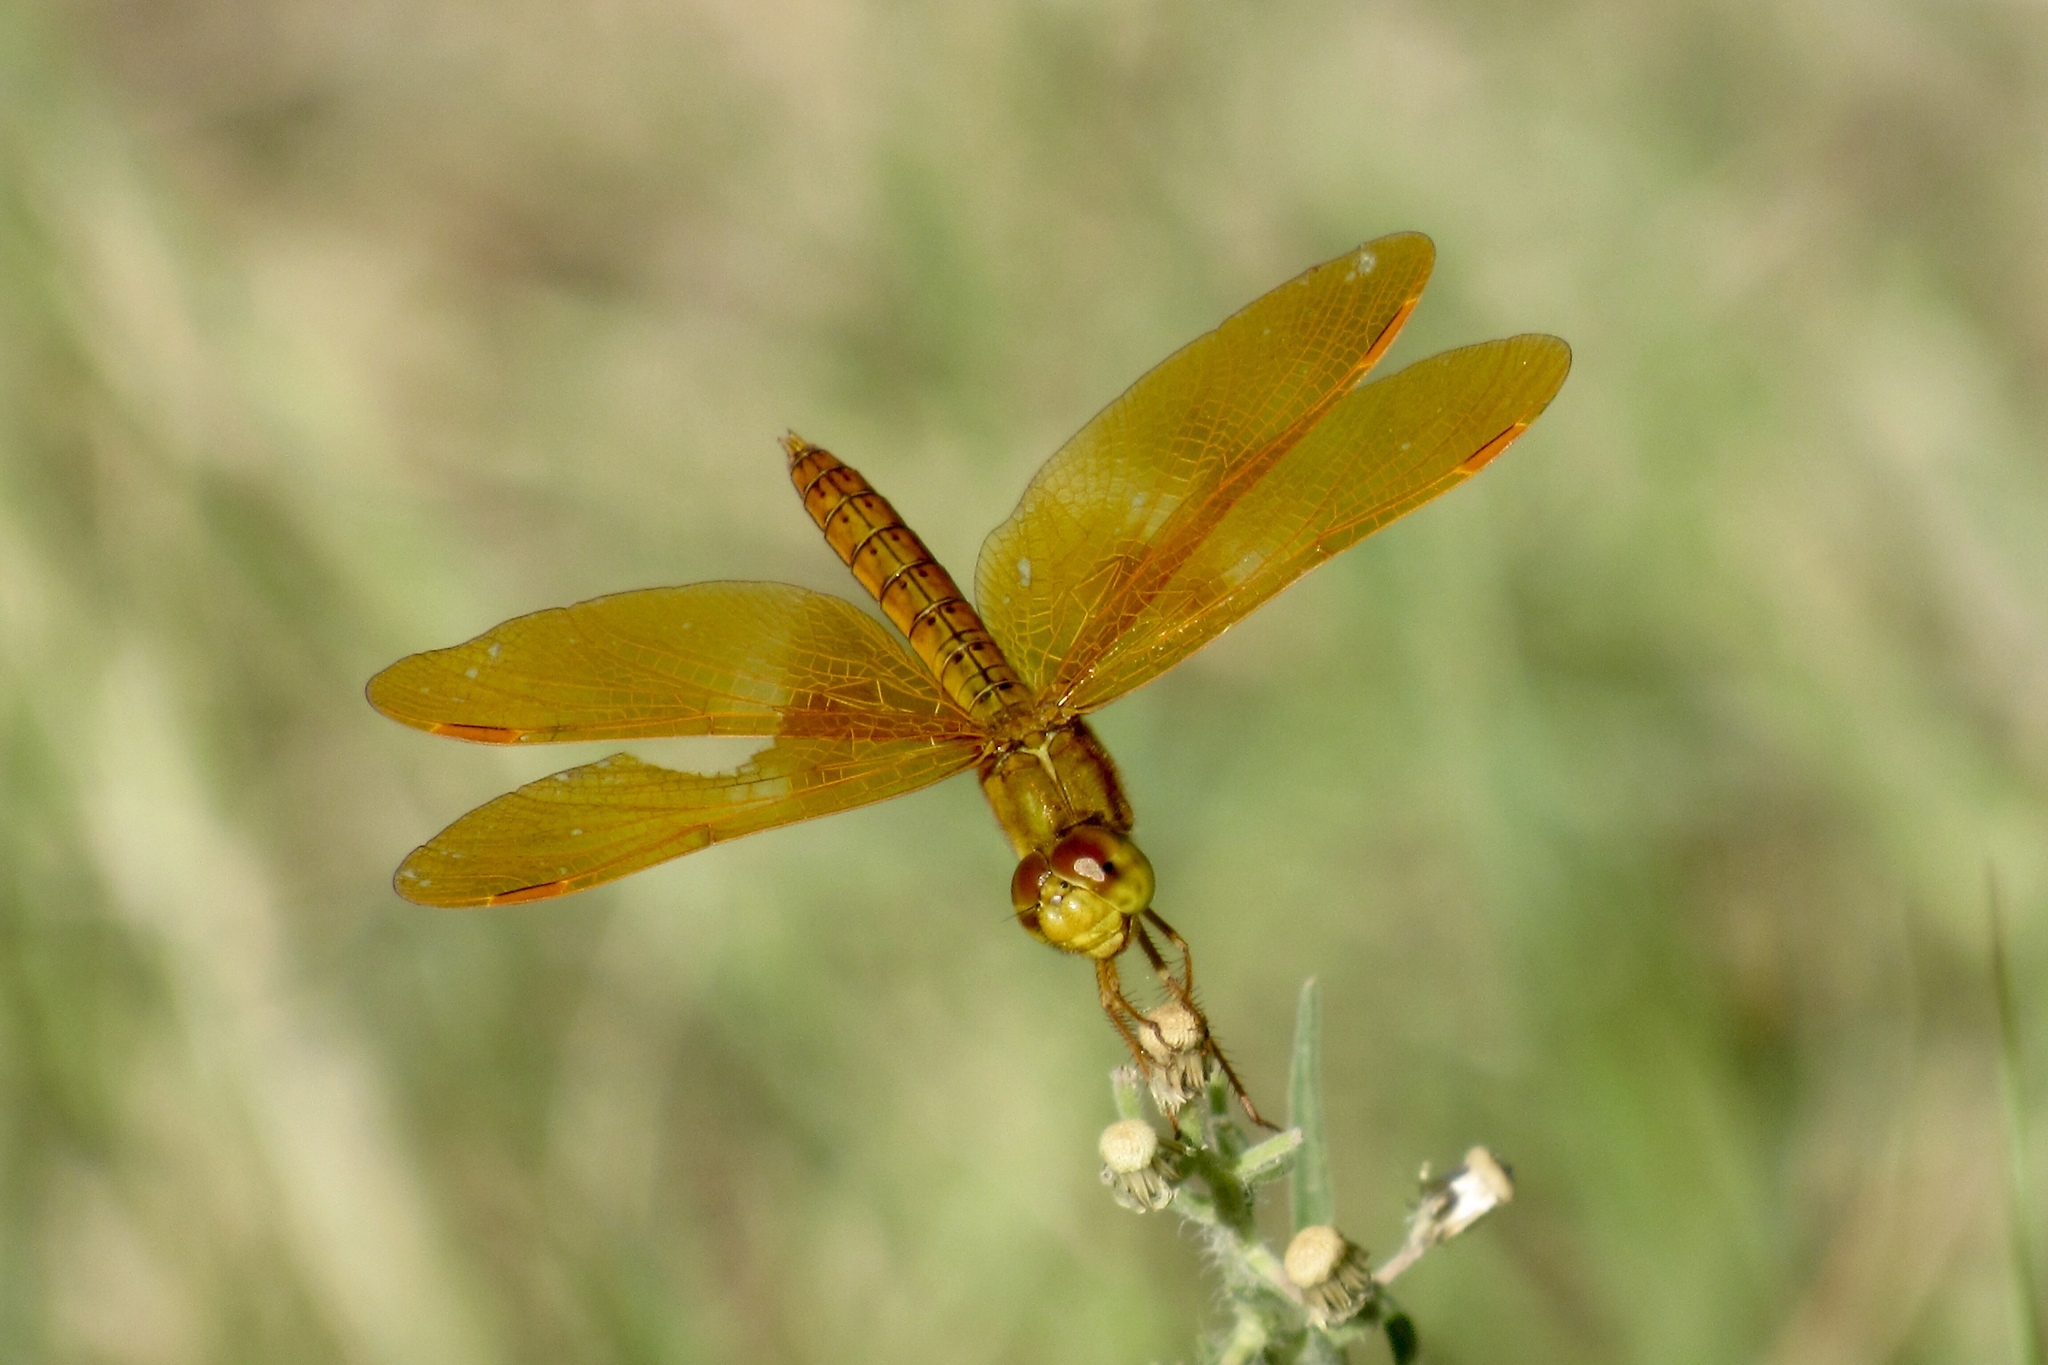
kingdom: Animalia
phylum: Arthropoda
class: Insecta
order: Odonata
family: Libellulidae
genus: Perithemis
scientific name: Perithemis intensa
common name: Mexican amberwing
